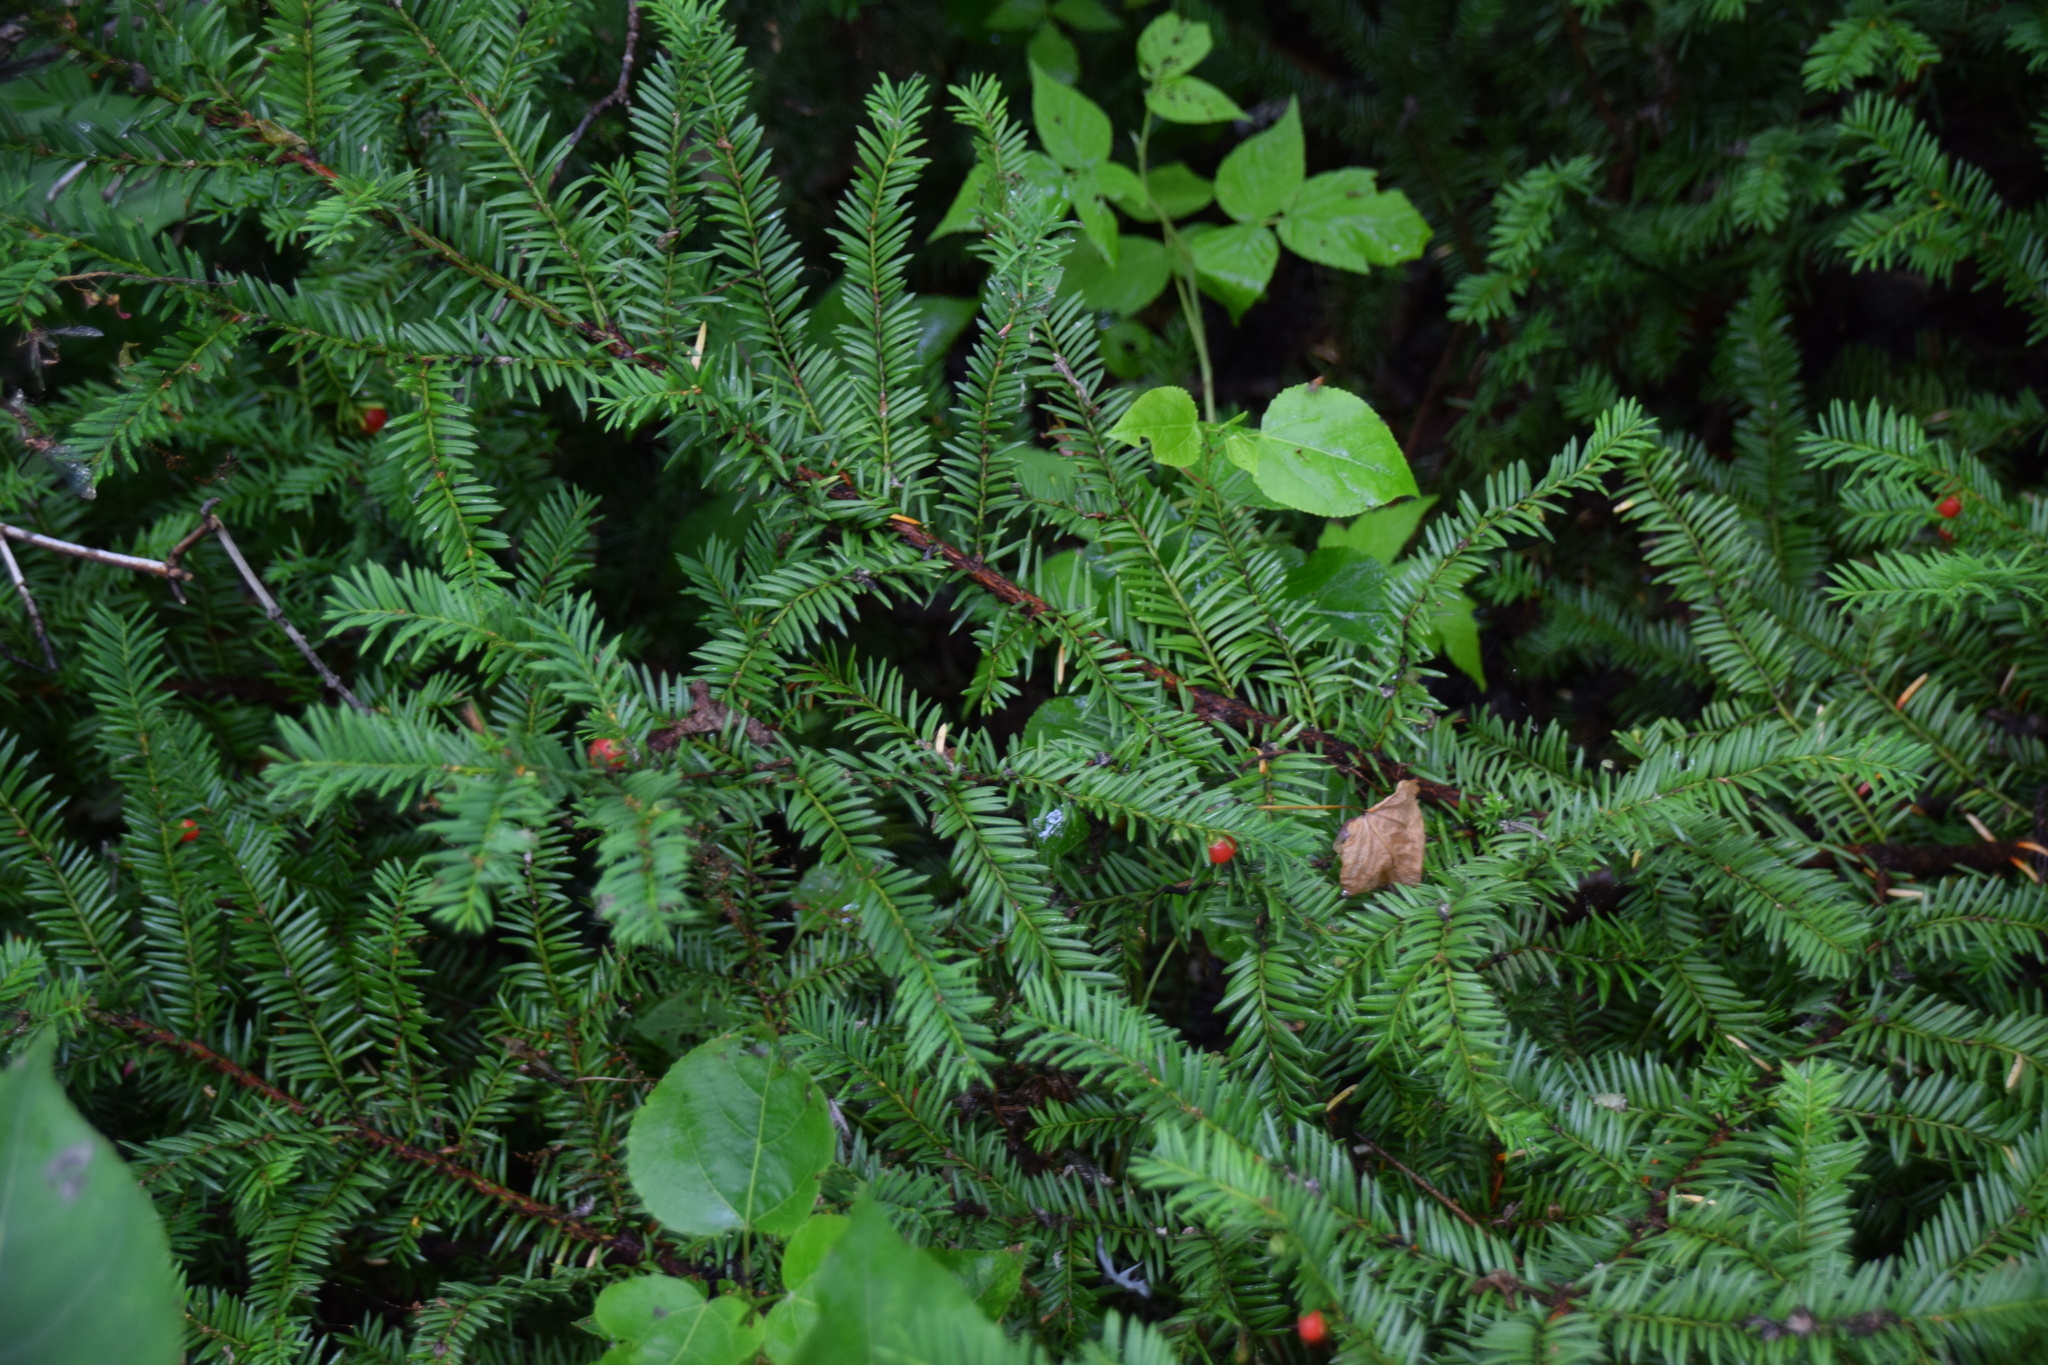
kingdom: Plantae
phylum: Tracheophyta
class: Pinopsida
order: Pinales
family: Taxaceae
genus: Taxus
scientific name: Taxus canadensis
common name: American yew
